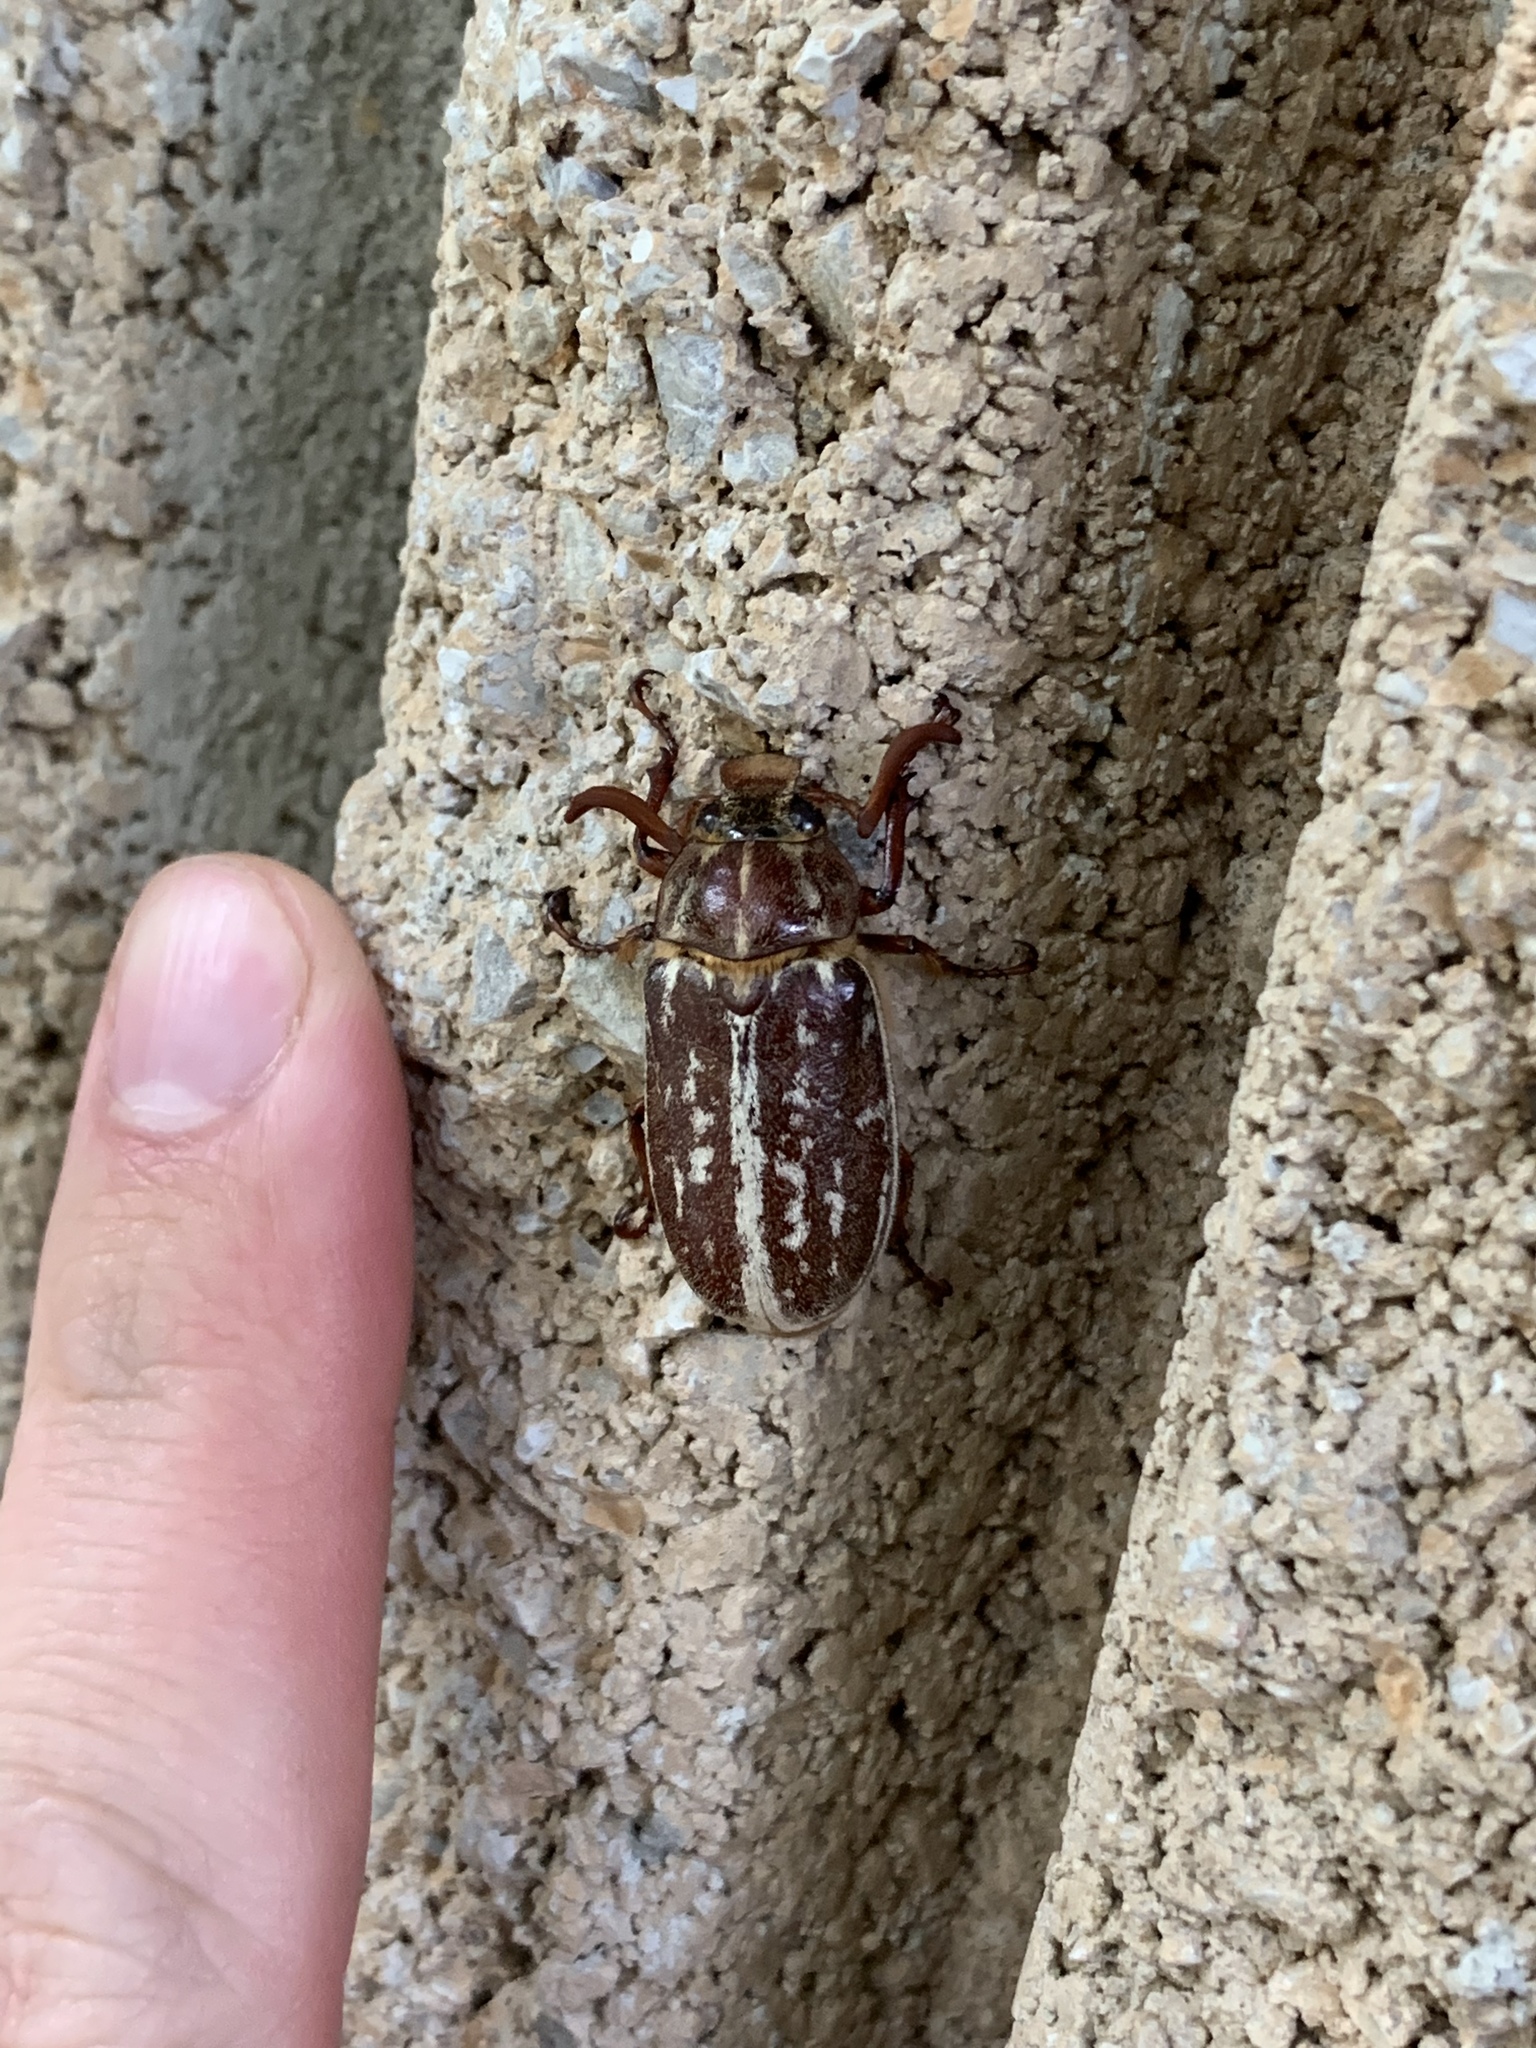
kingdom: Animalia
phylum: Arthropoda
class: Insecta
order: Coleoptera
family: Scarabaeidae
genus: Polyphylla
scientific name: Polyphylla comes
